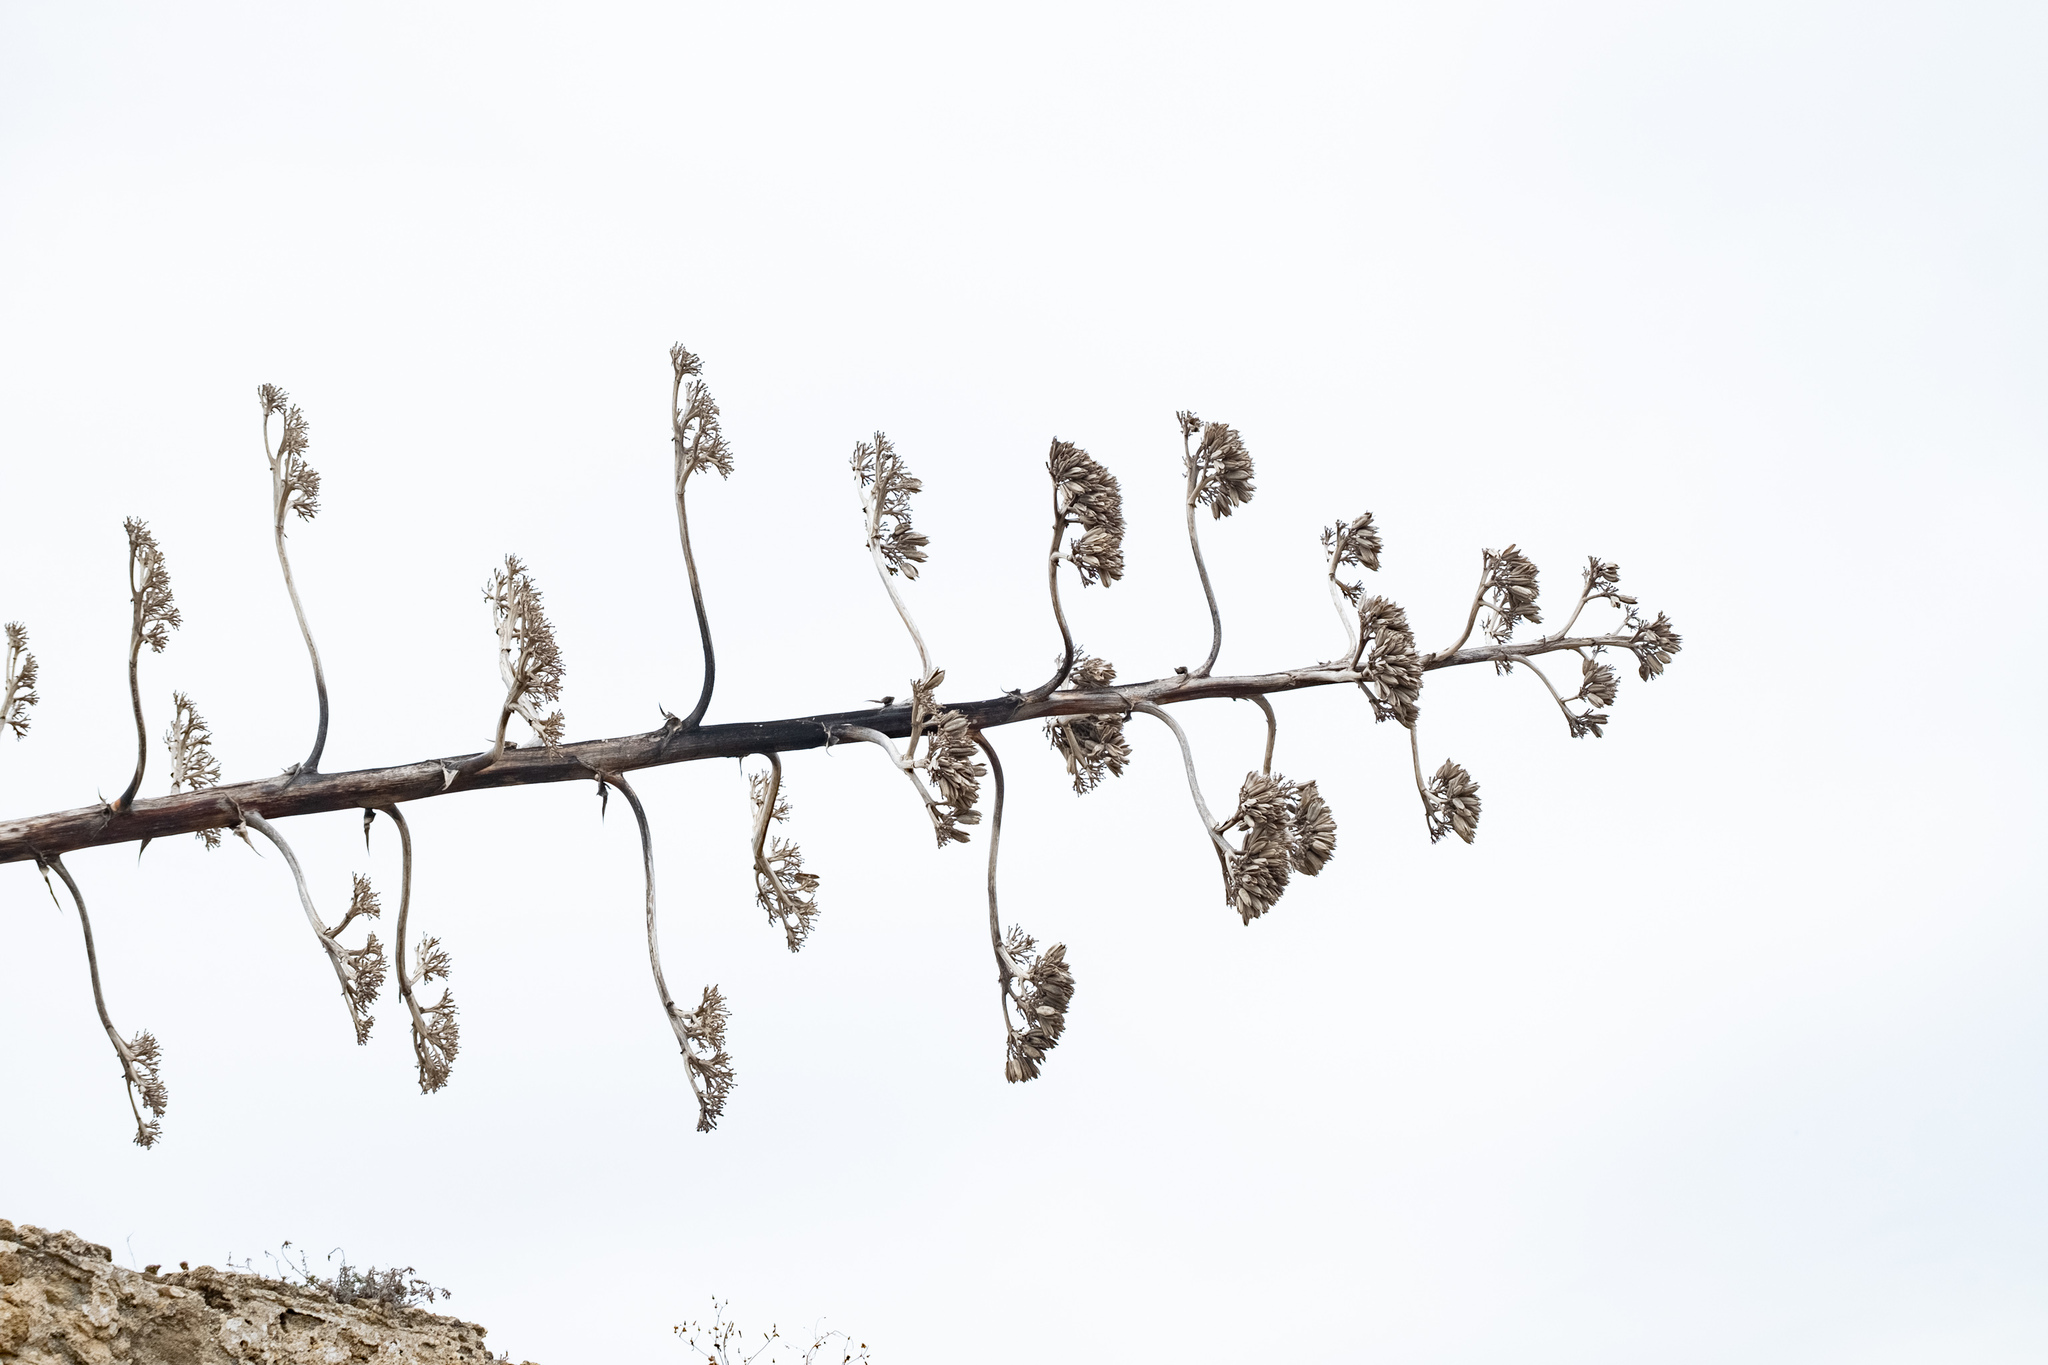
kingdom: Plantae
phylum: Tracheophyta
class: Liliopsida
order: Asparagales
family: Asparagaceae
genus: Agave
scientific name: Agave americana
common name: Centuryplant
